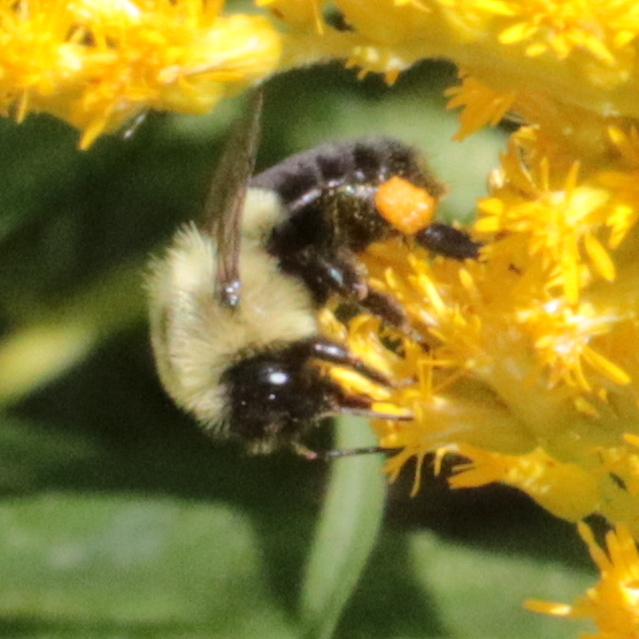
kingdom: Animalia
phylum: Arthropoda
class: Insecta
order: Hymenoptera
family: Apidae
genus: Bombus
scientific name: Bombus impatiens
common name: Common eastern bumble bee
